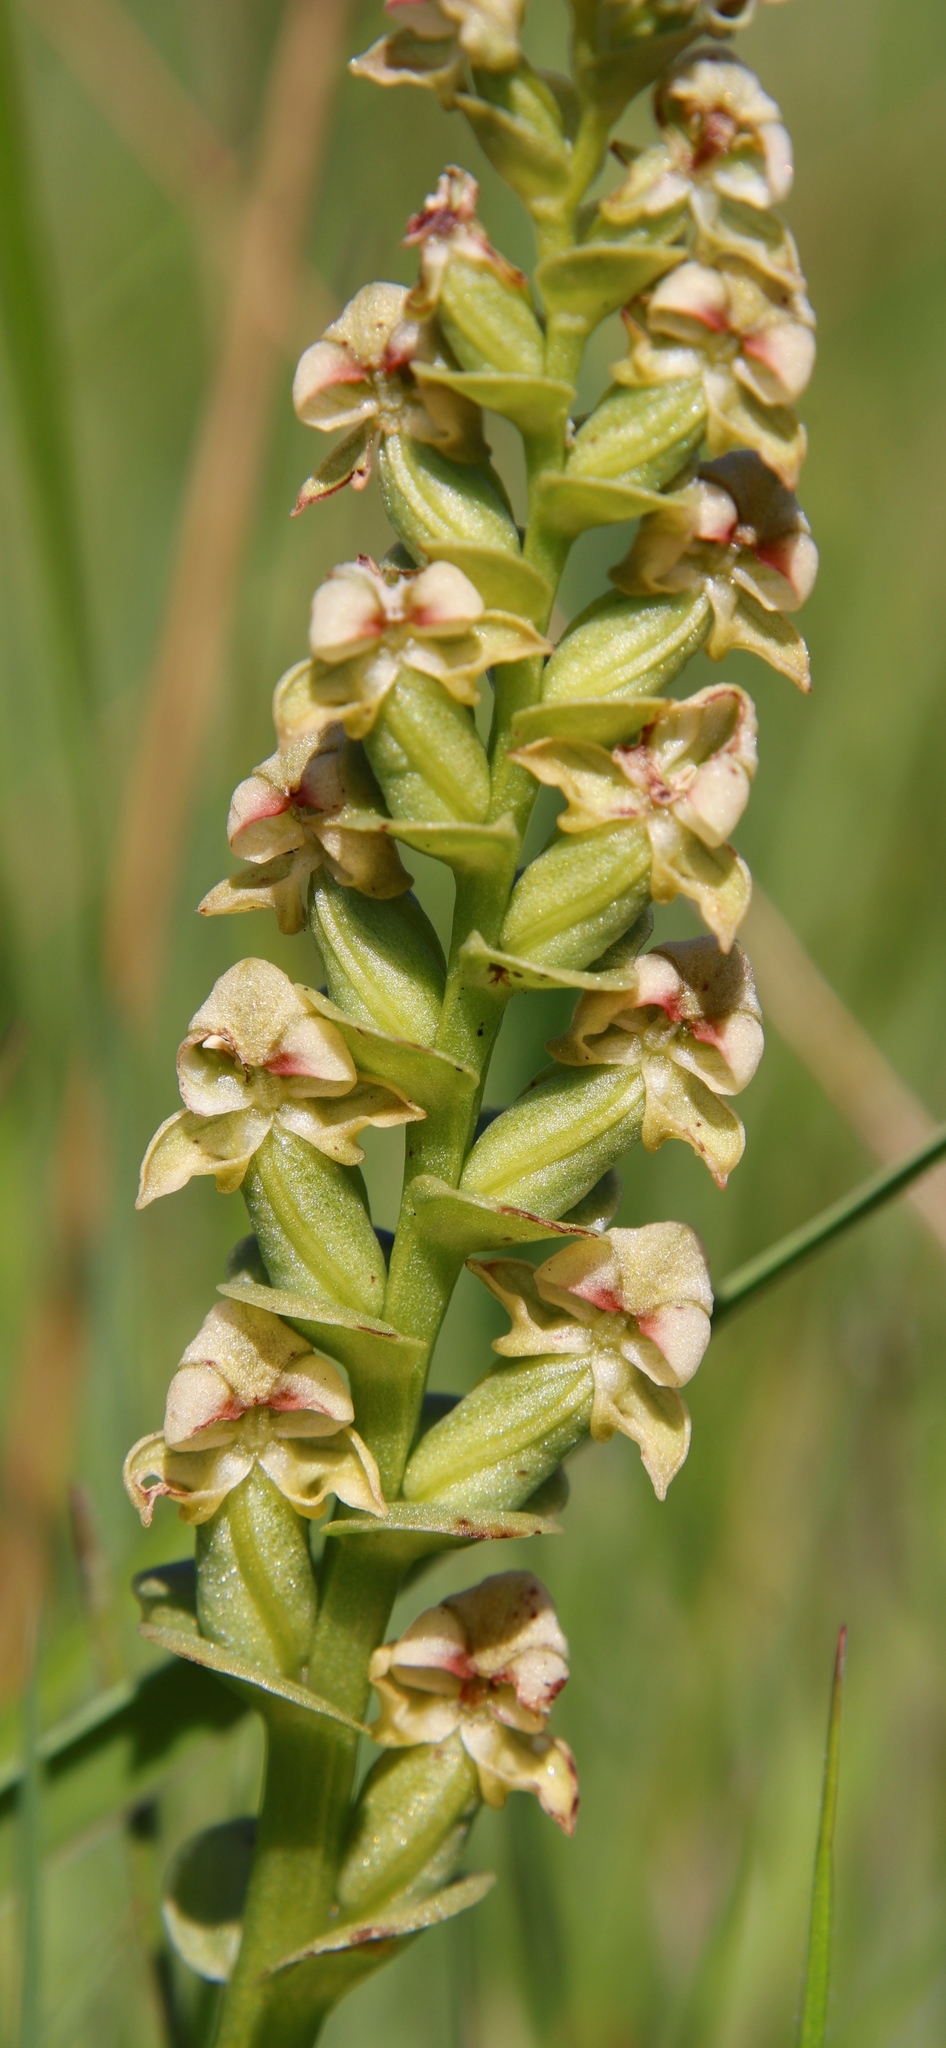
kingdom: Plantae
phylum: Tracheophyta
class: Liliopsida
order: Asparagales
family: Orchidaceae
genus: Disperis
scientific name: Disperis cardiophora
